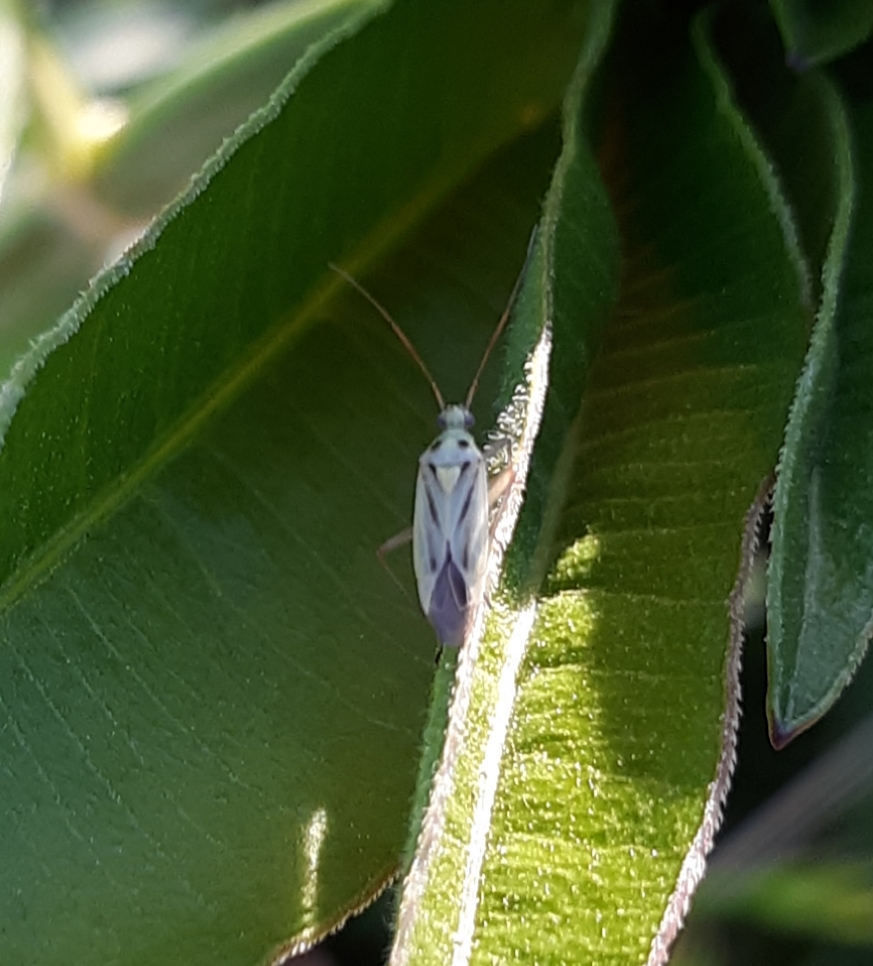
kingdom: Animalia
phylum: Arthropoda
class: Insecta
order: Hemiptera
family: Miridae
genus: Stenotus
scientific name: Stenotus binotatus
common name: Plant bug
